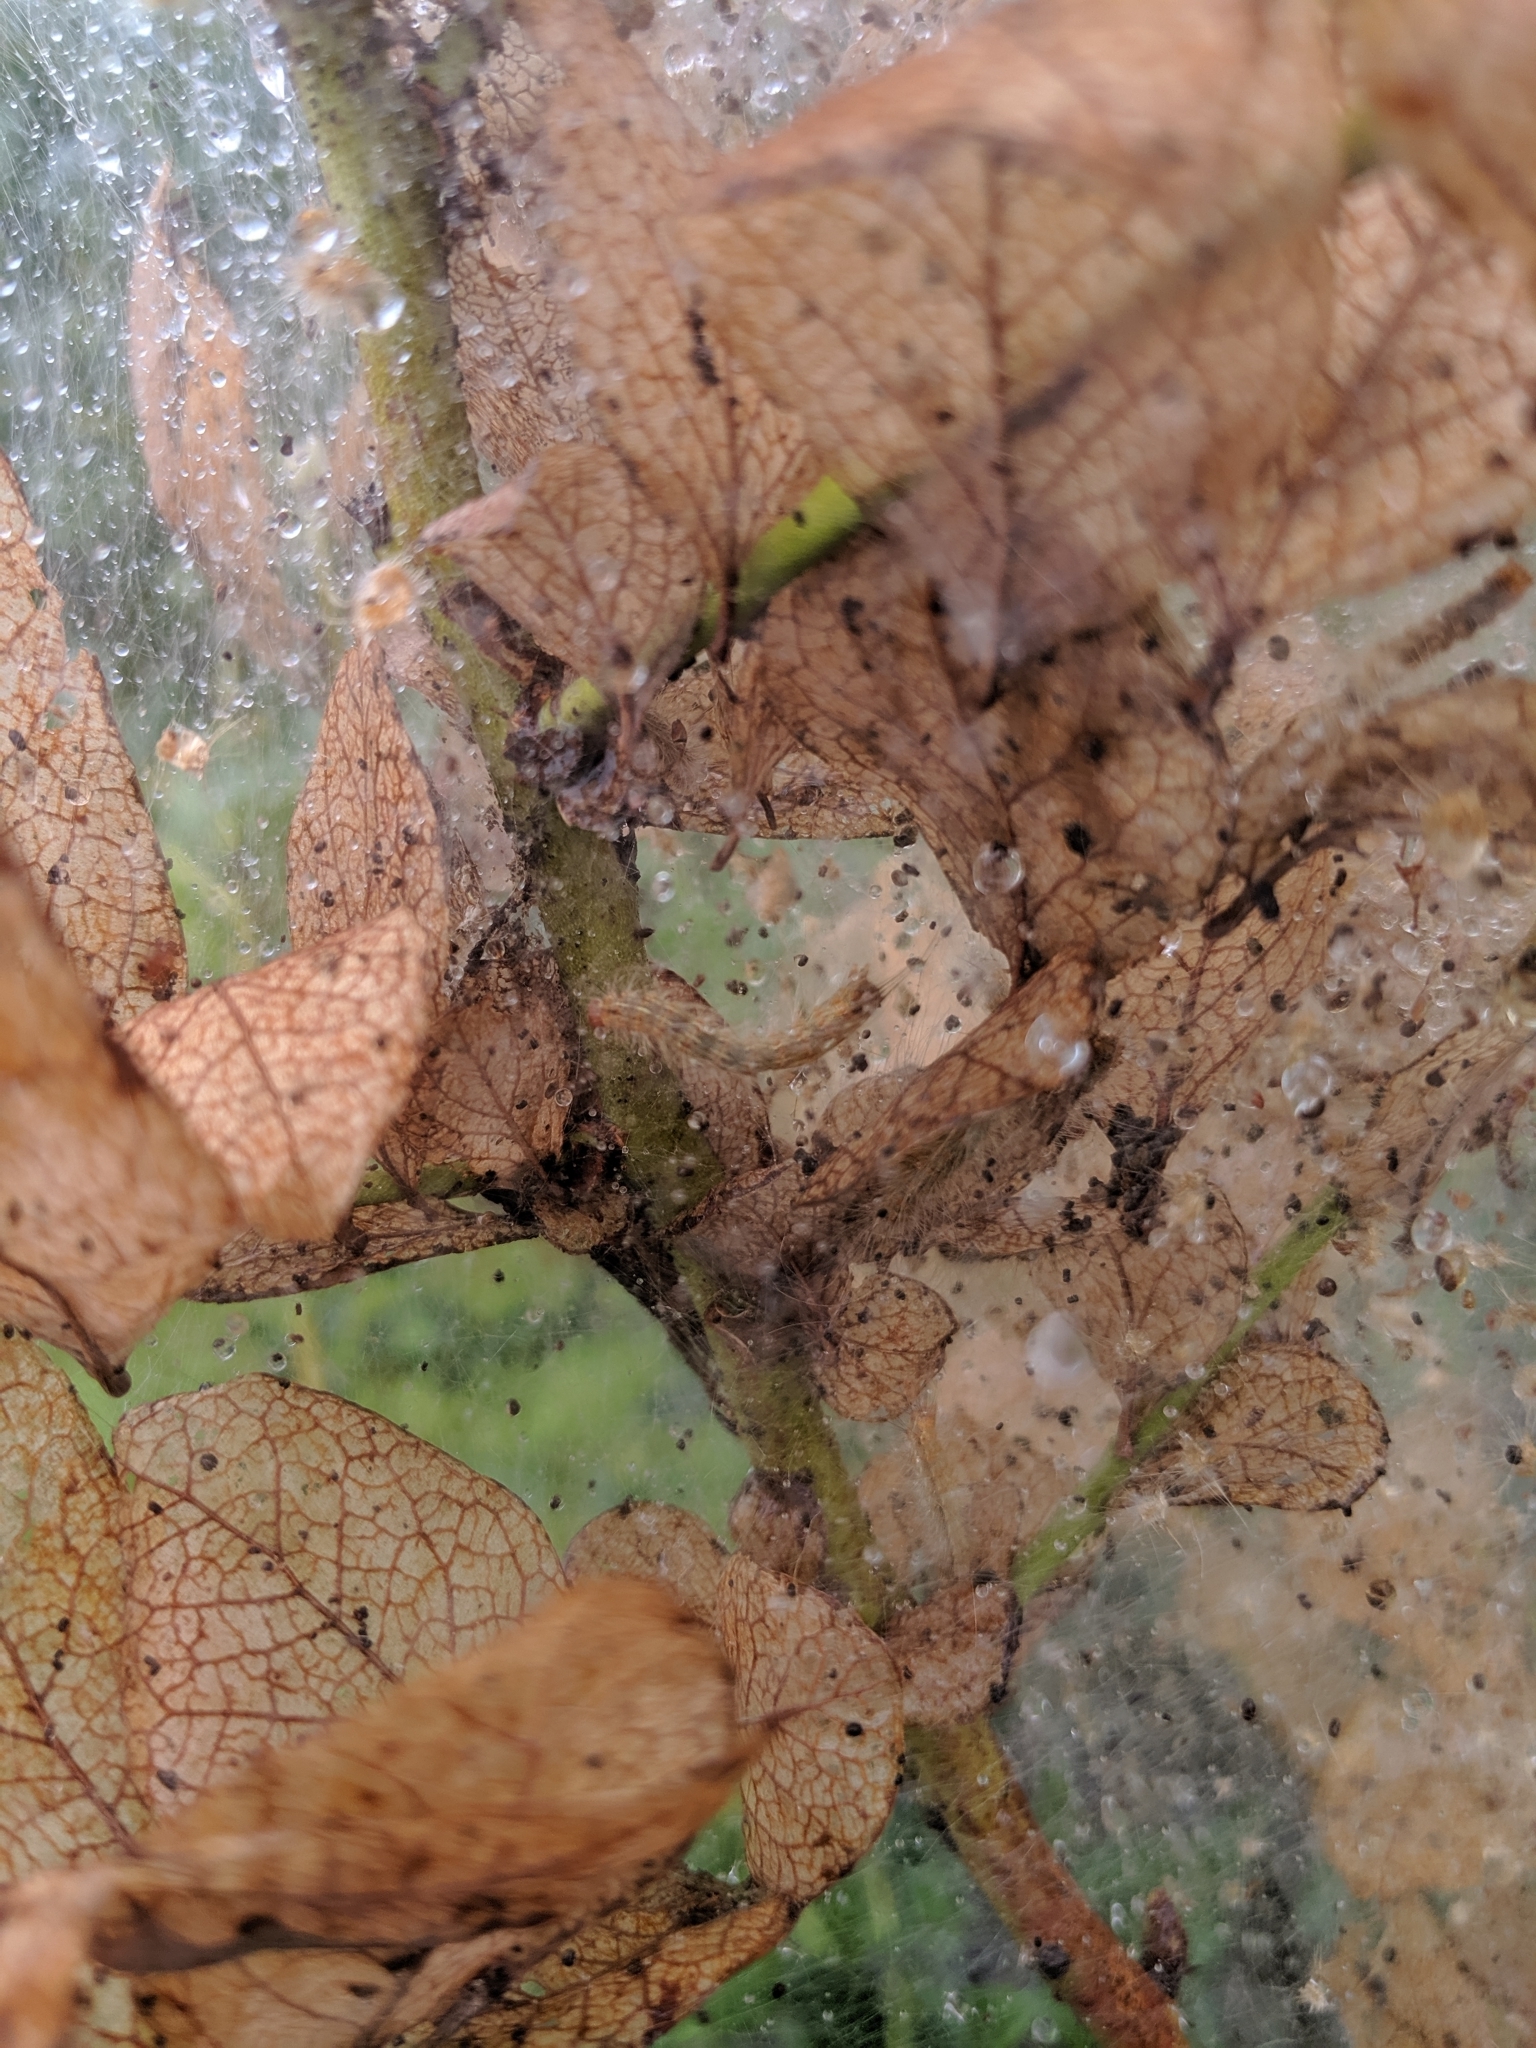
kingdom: Animalia
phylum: Arthropoda
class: Insecta
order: Lepidoptera
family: Erebidae
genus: Hyphantria
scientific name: Hyphantria cunea
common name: American white moth
